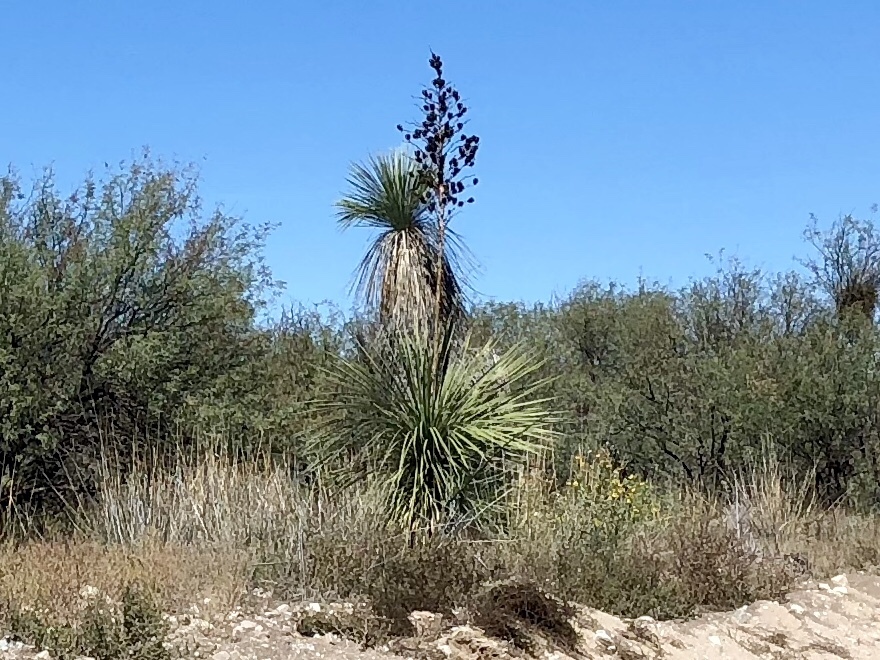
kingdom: Plantae
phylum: Tracheophyta
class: Liliopsida
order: Asparagales
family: Asparagaceae
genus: Yucca
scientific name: Yucca elata
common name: Palmella
